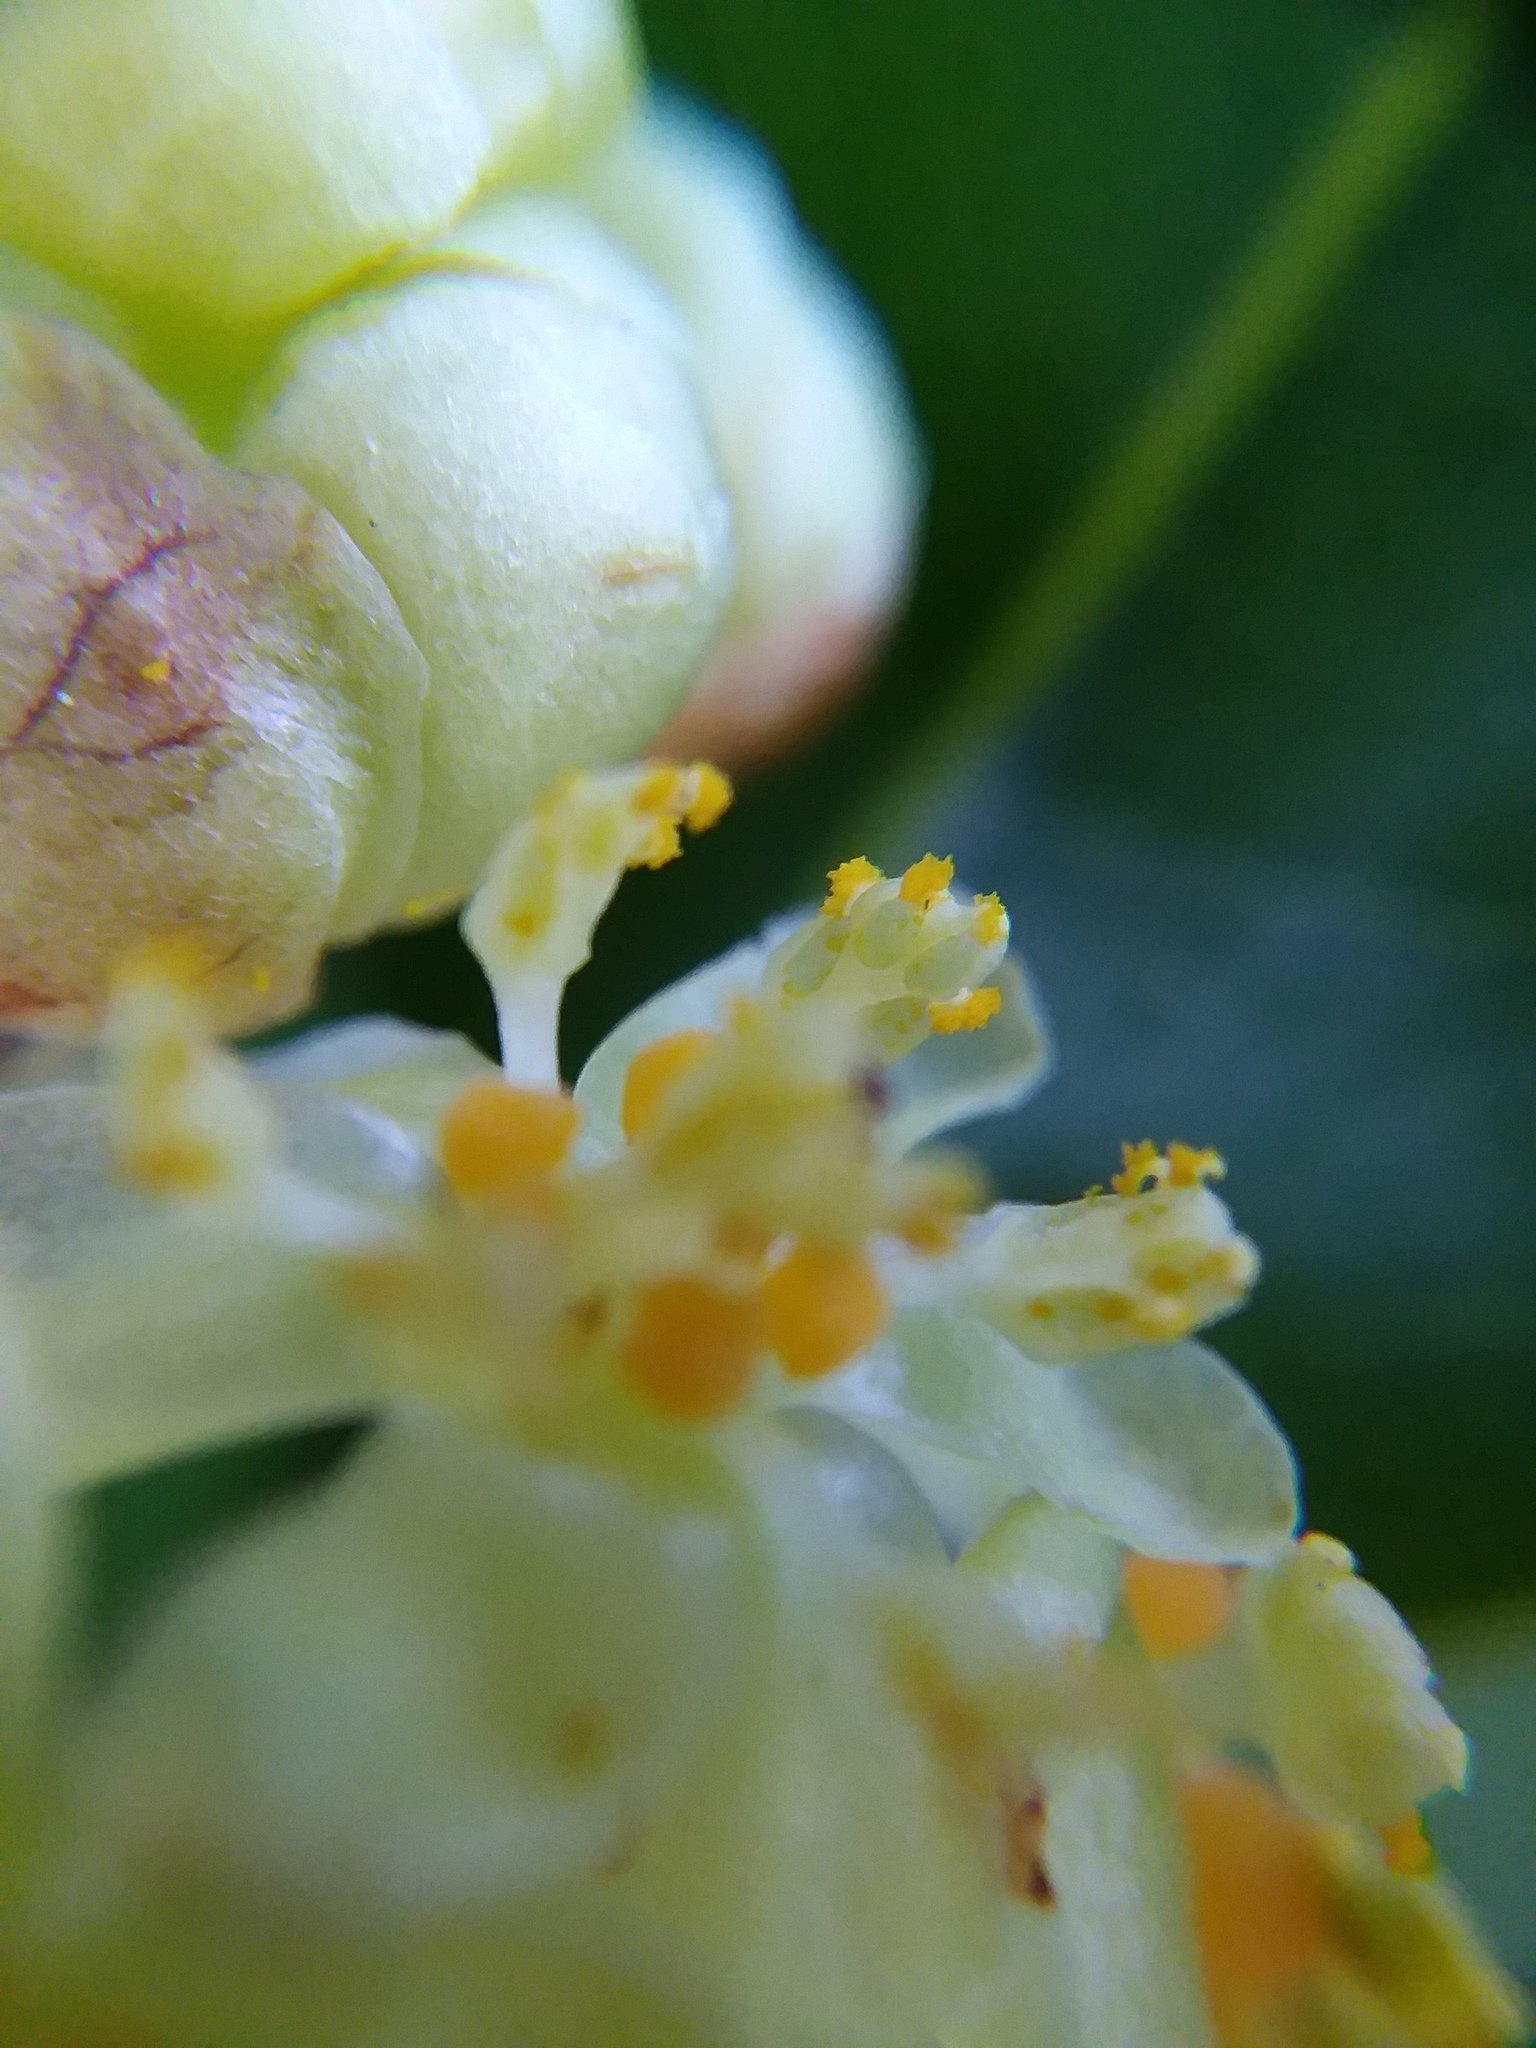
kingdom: Plantae
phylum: Tracheophyta
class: Magnoliopsida
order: Laurales
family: Lauraceae
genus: Umbellularia
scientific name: Umbellularia californica
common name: California bay
